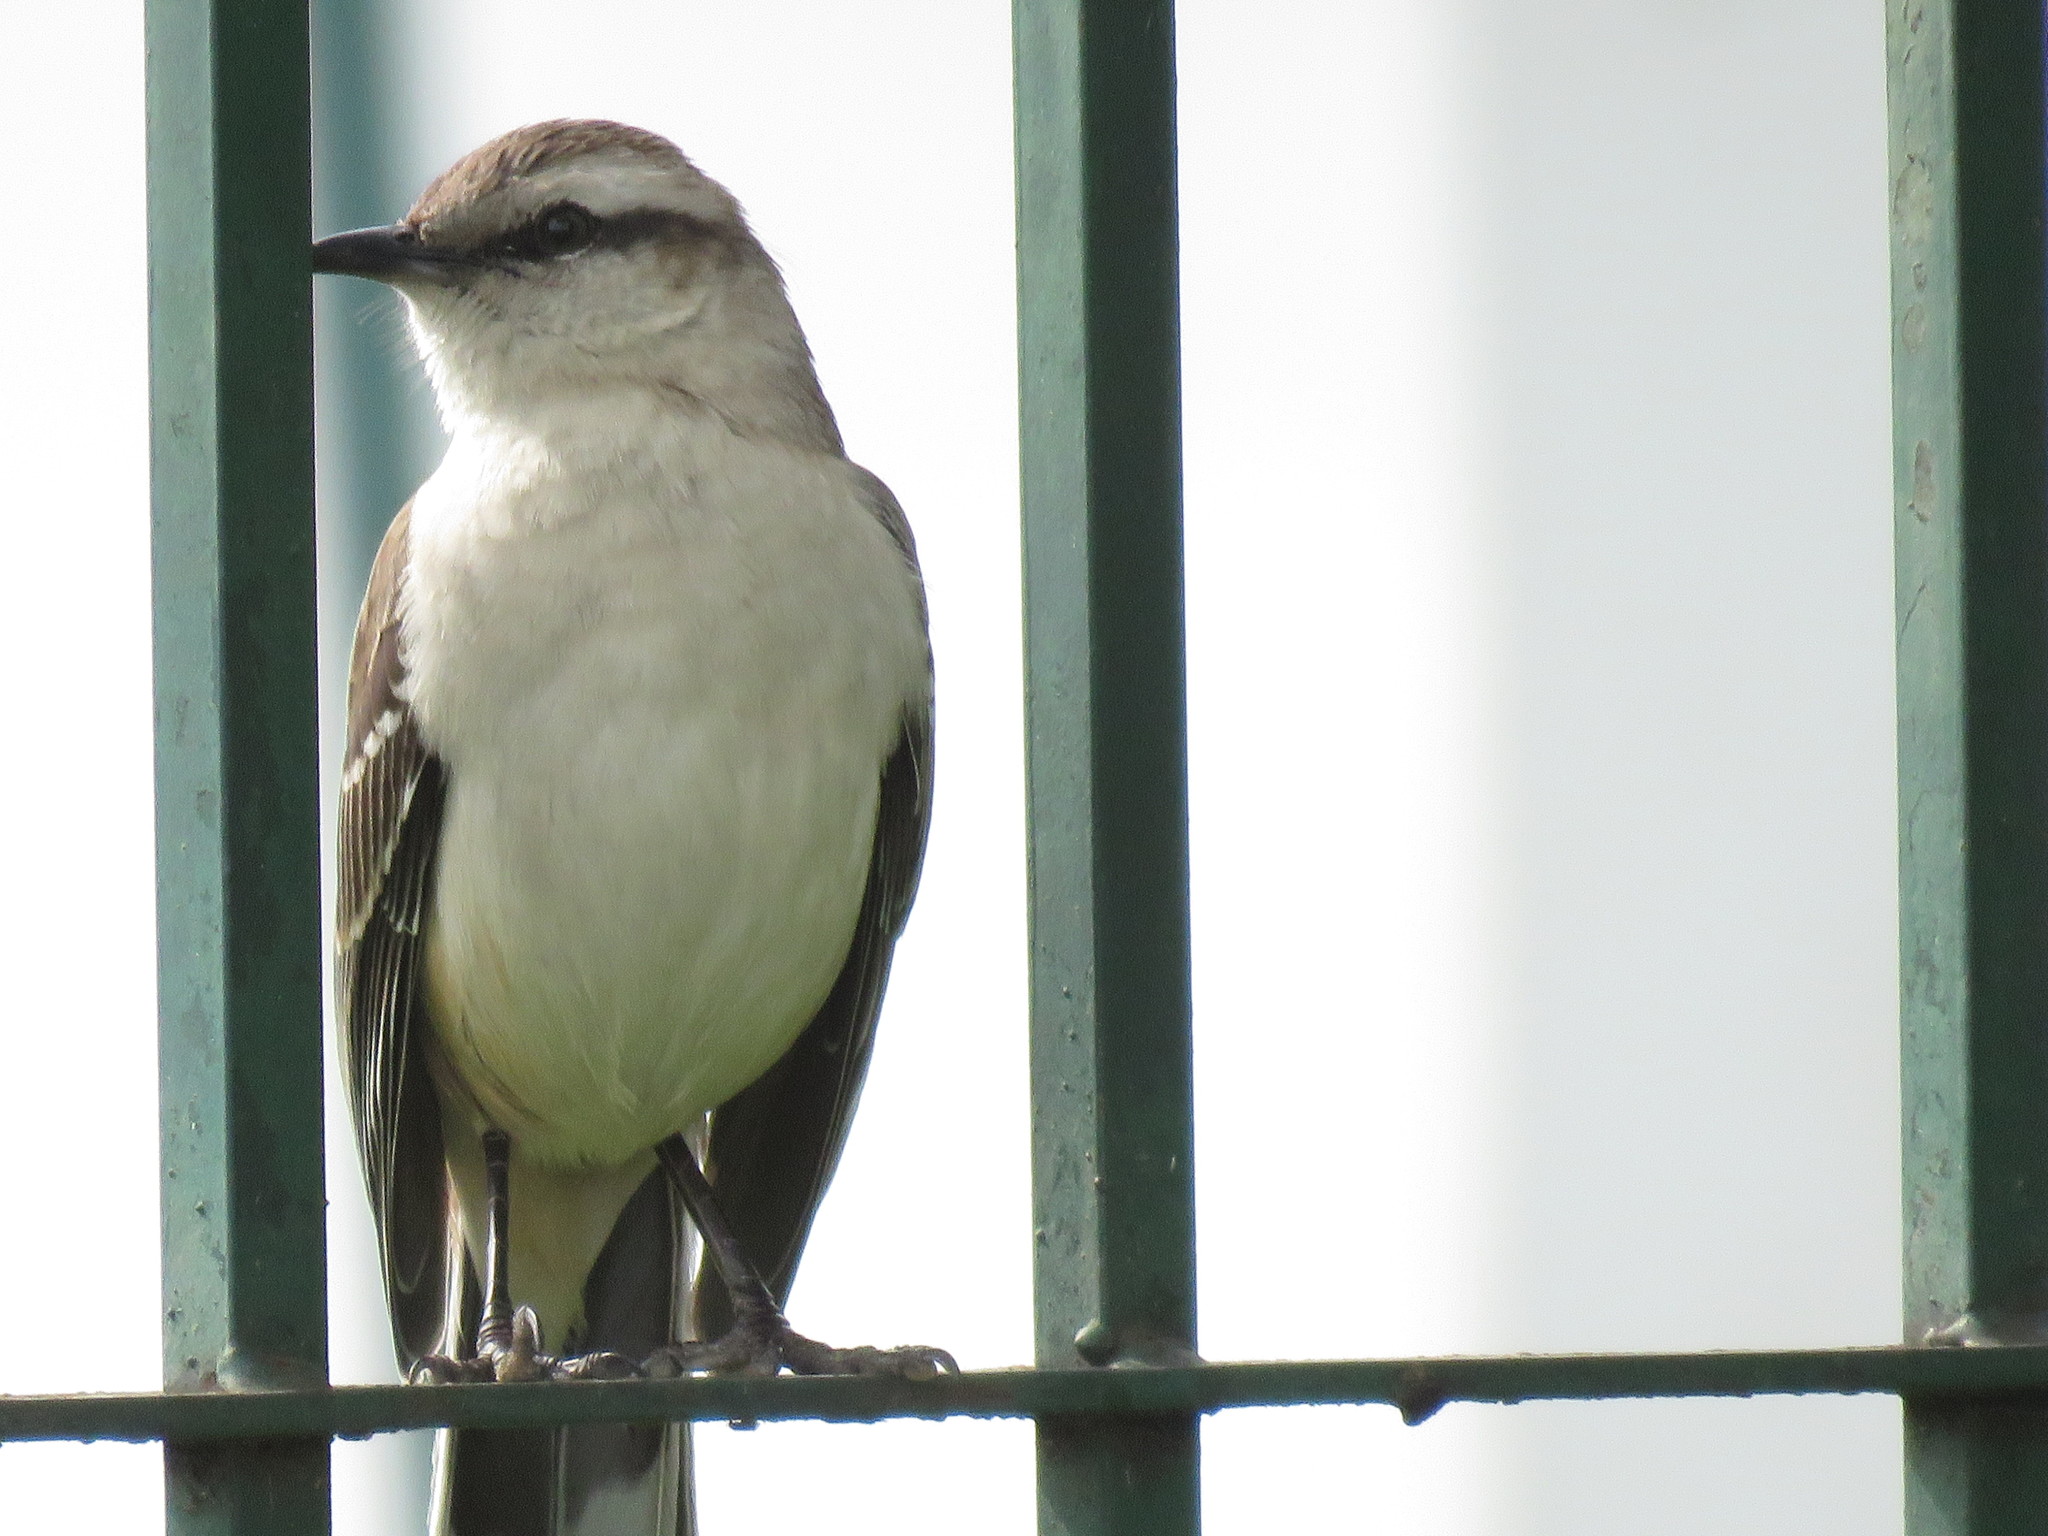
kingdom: Animalia
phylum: Chordata
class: Aves
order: Passeriformes
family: Mimidae
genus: Mimus
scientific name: Mimus saturninus
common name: Chalk-browed mockingbird
